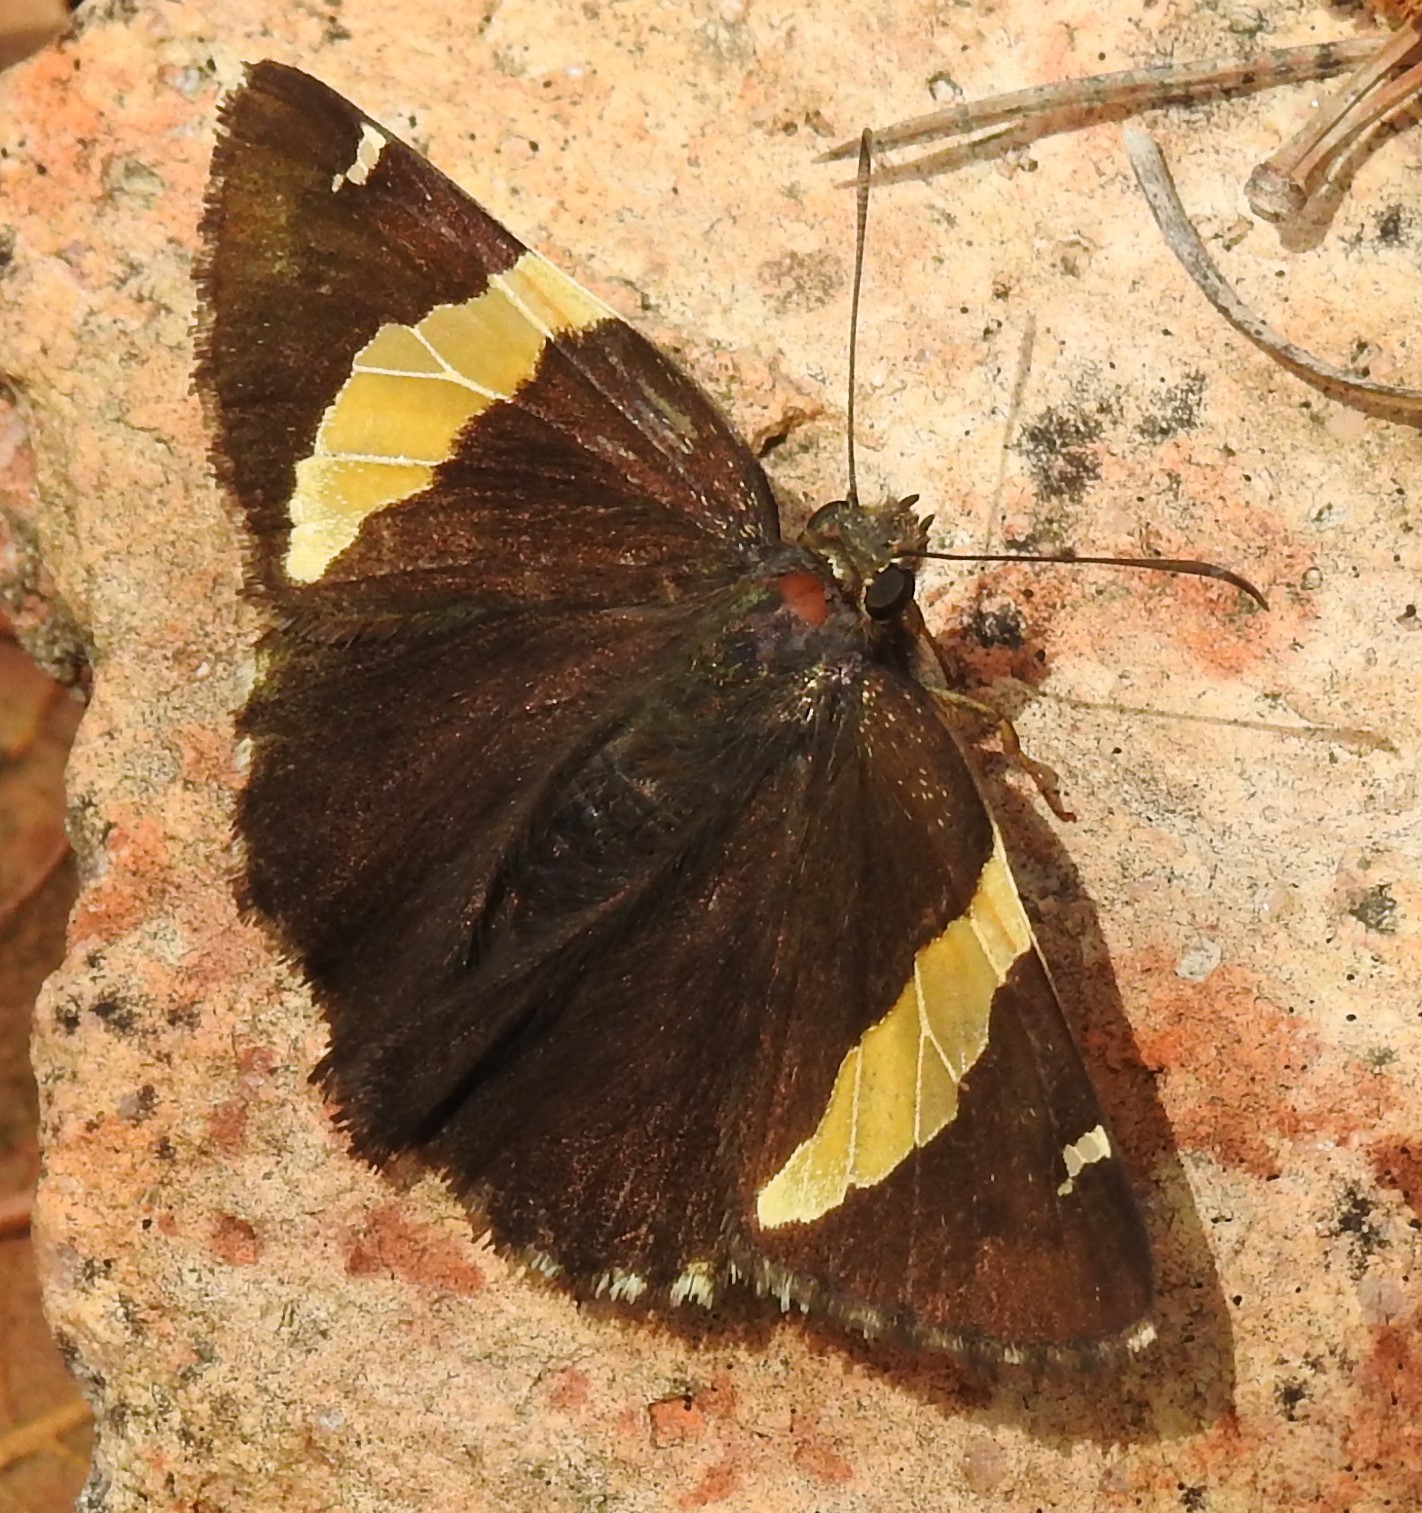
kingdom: Animalia
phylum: Arthropoda
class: Arachnida
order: Scorpiones
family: Bothriuridae
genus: Telegonus
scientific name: Telegonus cellus
